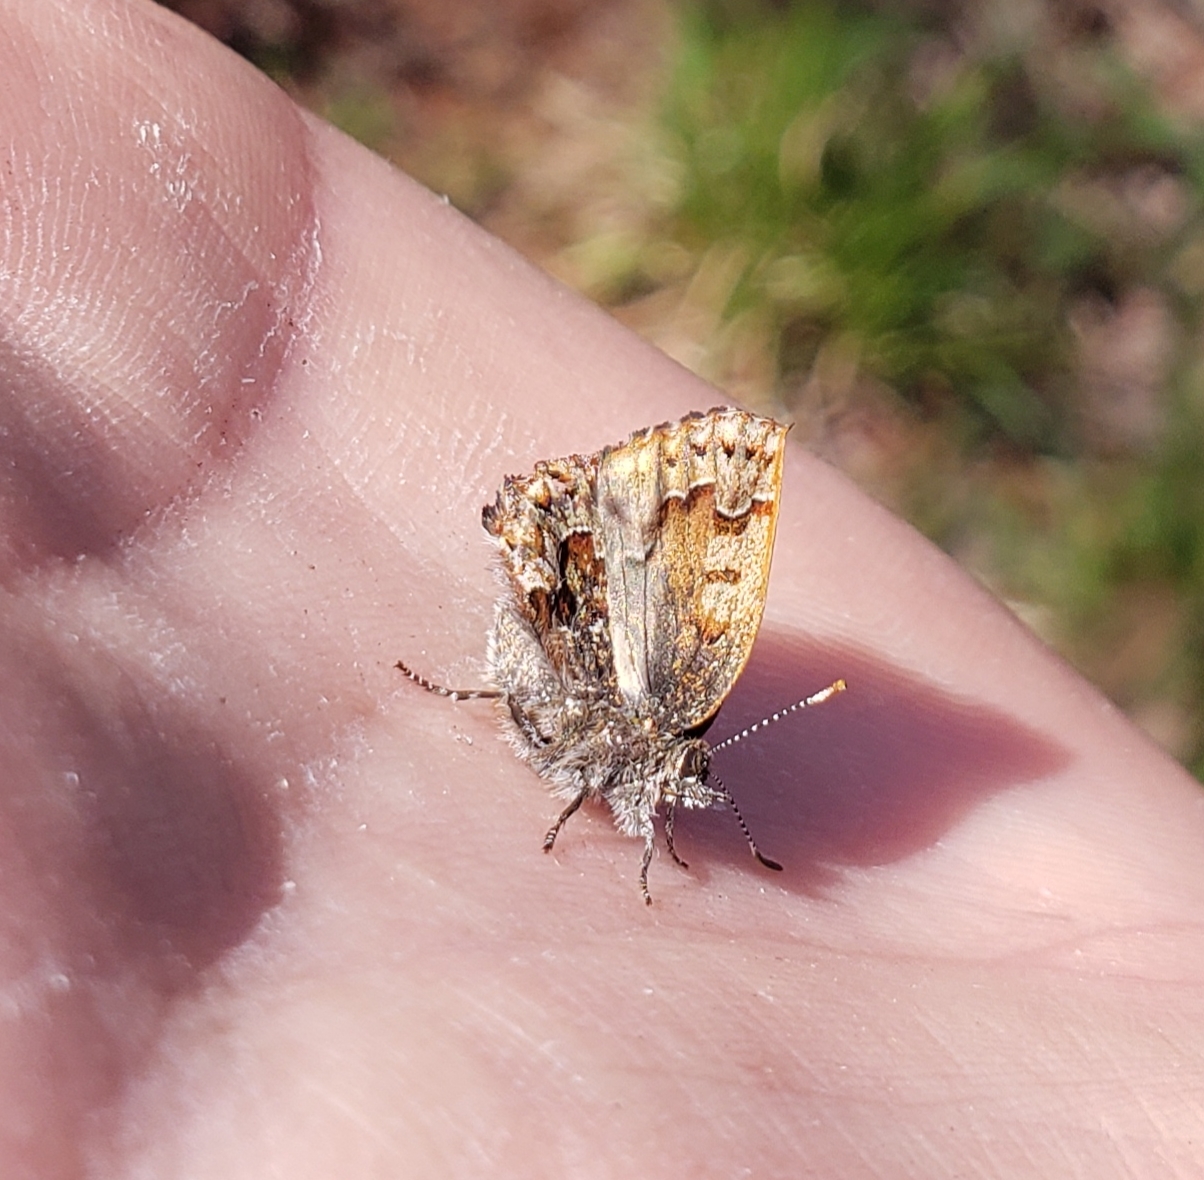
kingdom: Animalia
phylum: Arthropoda
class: Insecta
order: Lepidoptera
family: Lycaenidae
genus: Incisalia
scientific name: Incisalia niphon
